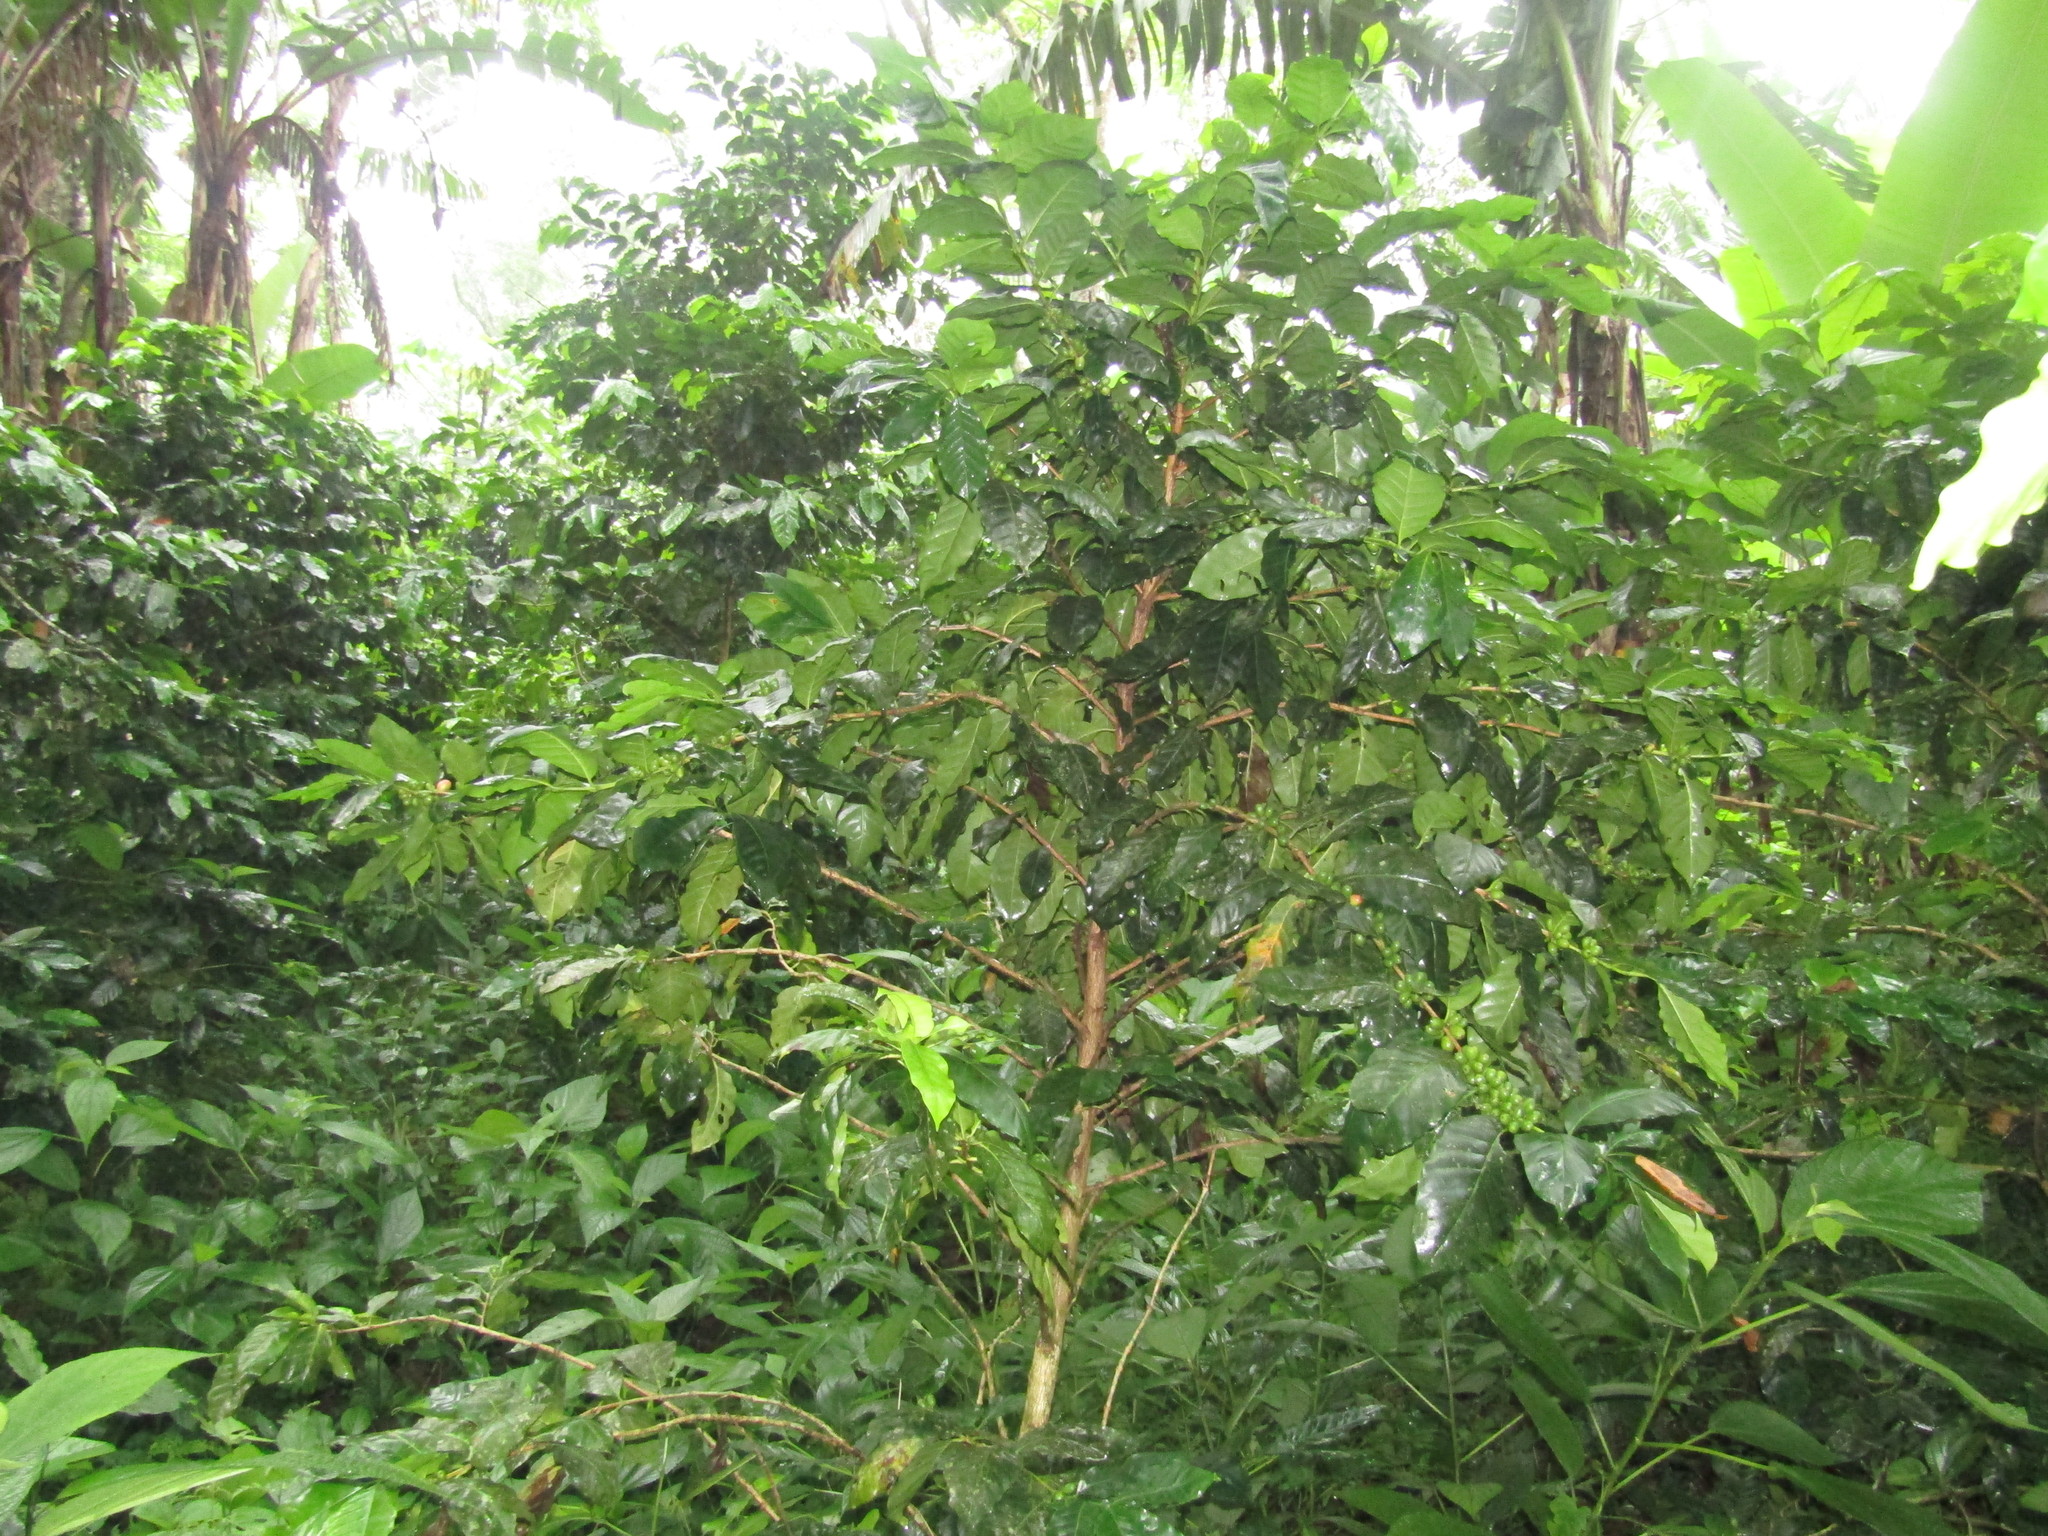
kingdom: Plantae
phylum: Tracheophyta
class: Magnoliopsida
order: Gentianales
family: Rubiaceae
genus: Coffea
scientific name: Coffea arabica
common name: Coffee
